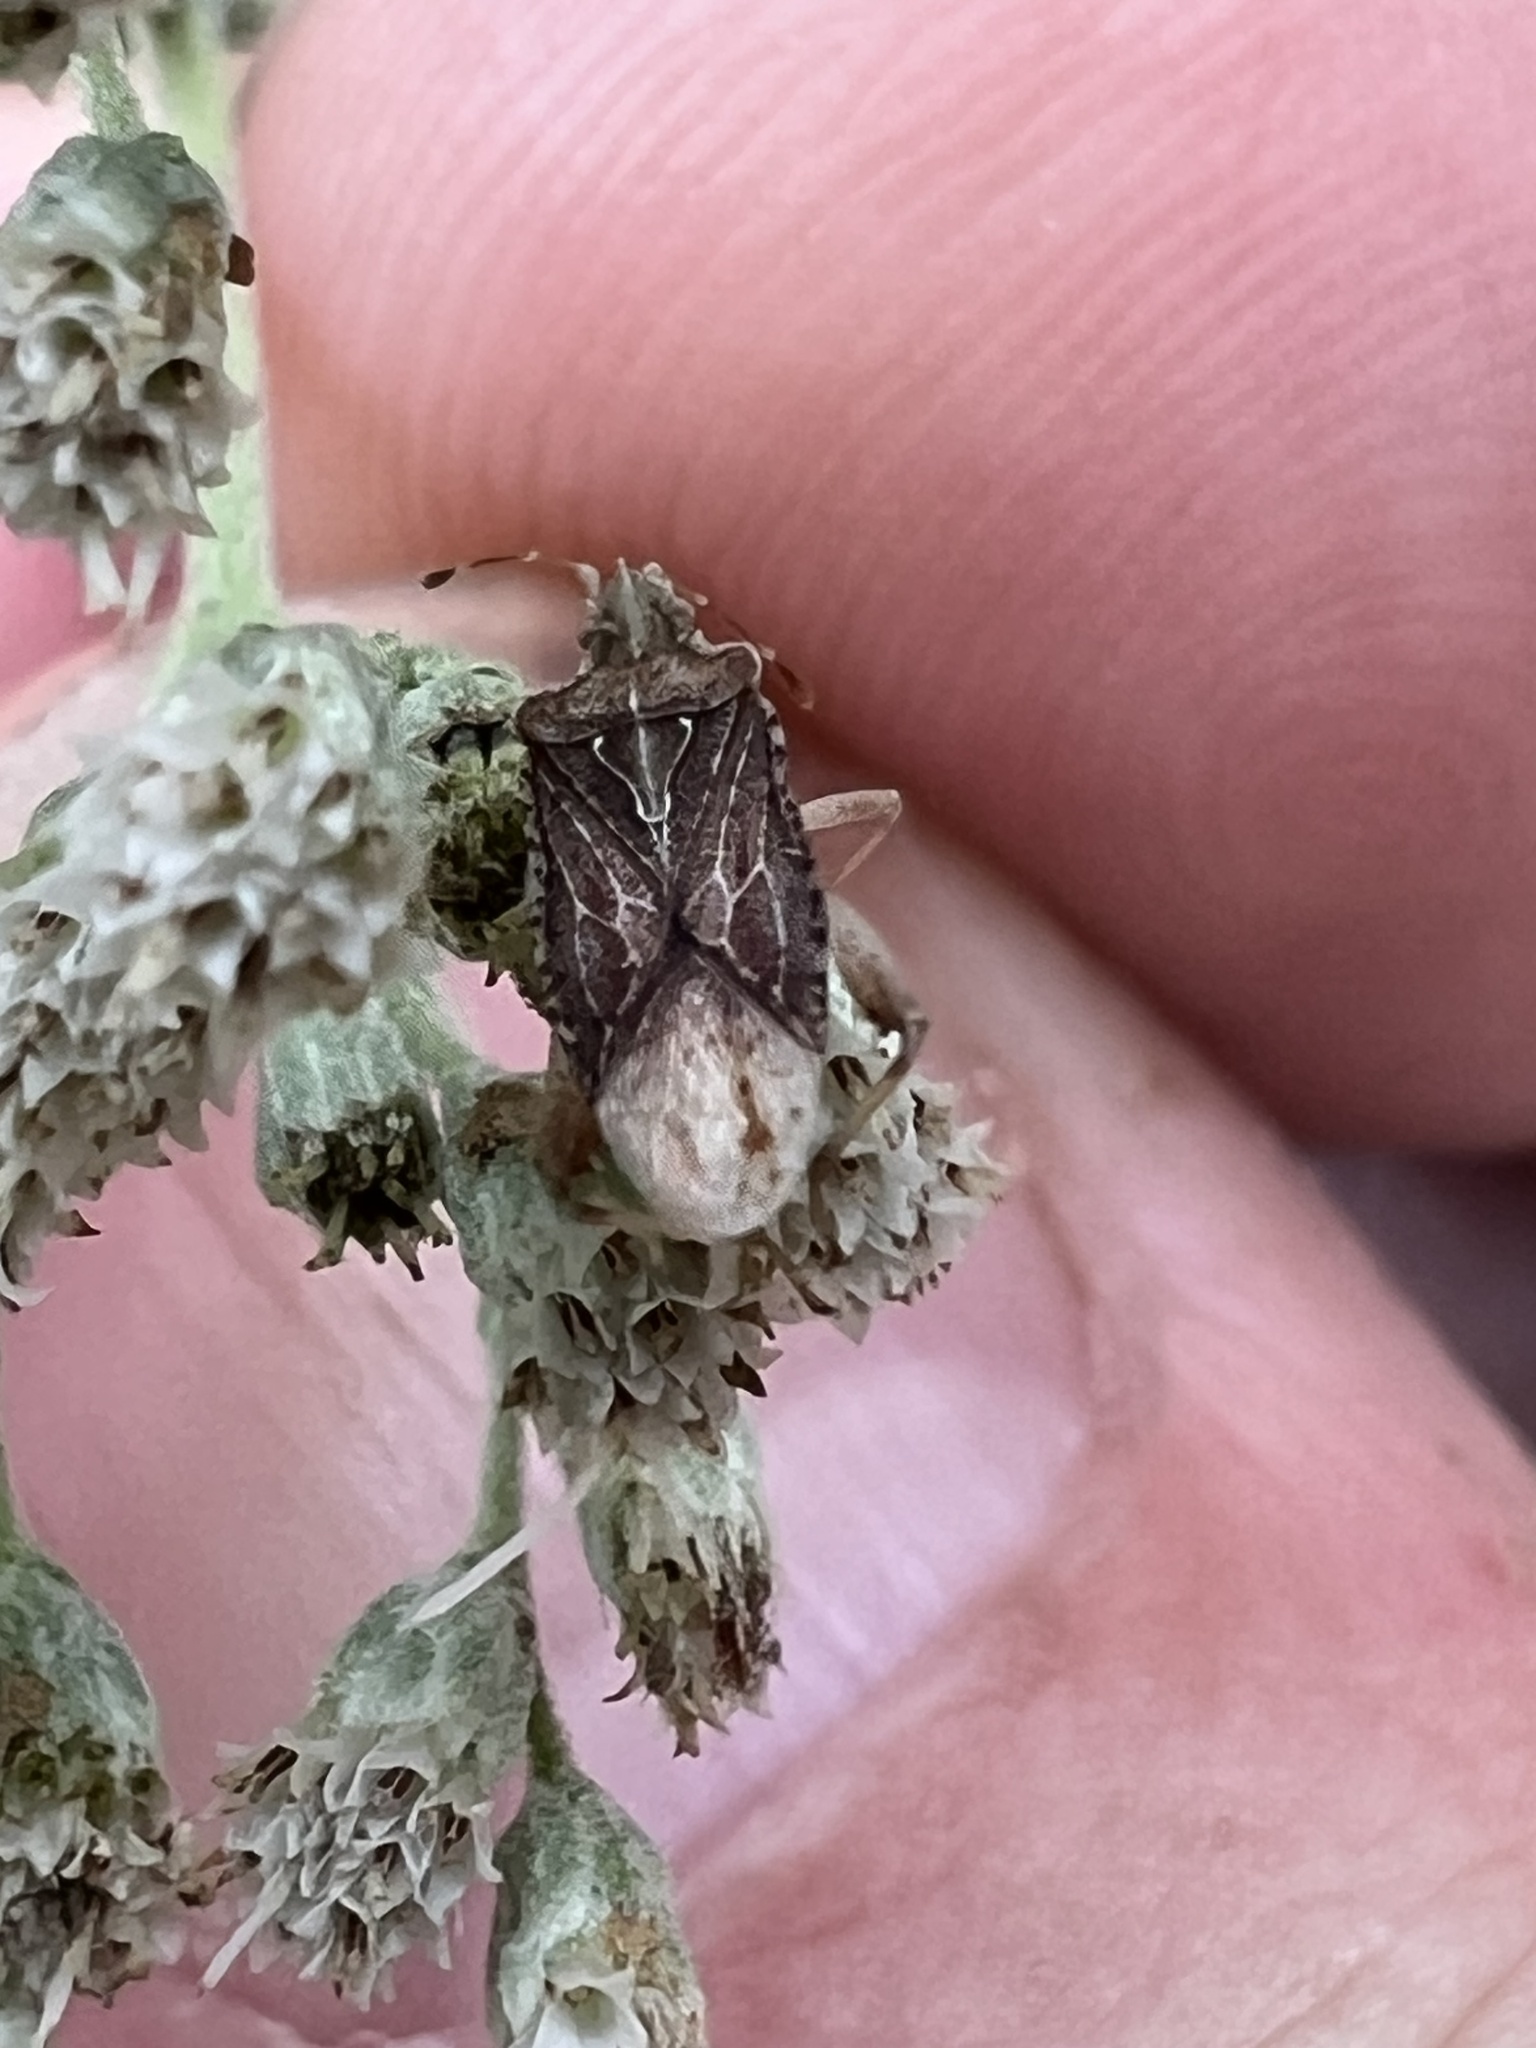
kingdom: Animalia
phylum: Arthropoda
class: Insecta
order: Hemiptera
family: Rhopalidae
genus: Harmostes
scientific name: Harmostes fraterculus
